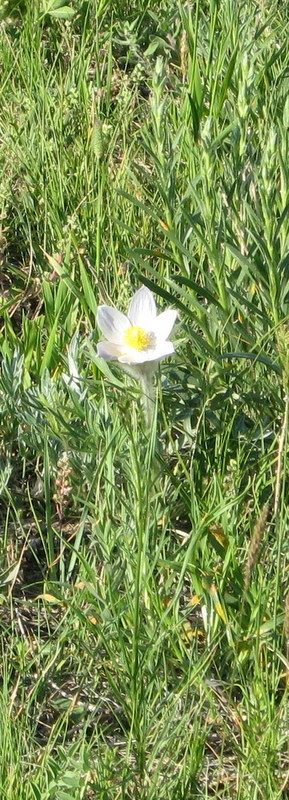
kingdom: Plantae
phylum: Tracheophyta
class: Magnoliopsida
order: Ranunculales
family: Ranunculaceae
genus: Pulsatilla
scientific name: Pulsatilla nuttalliana
